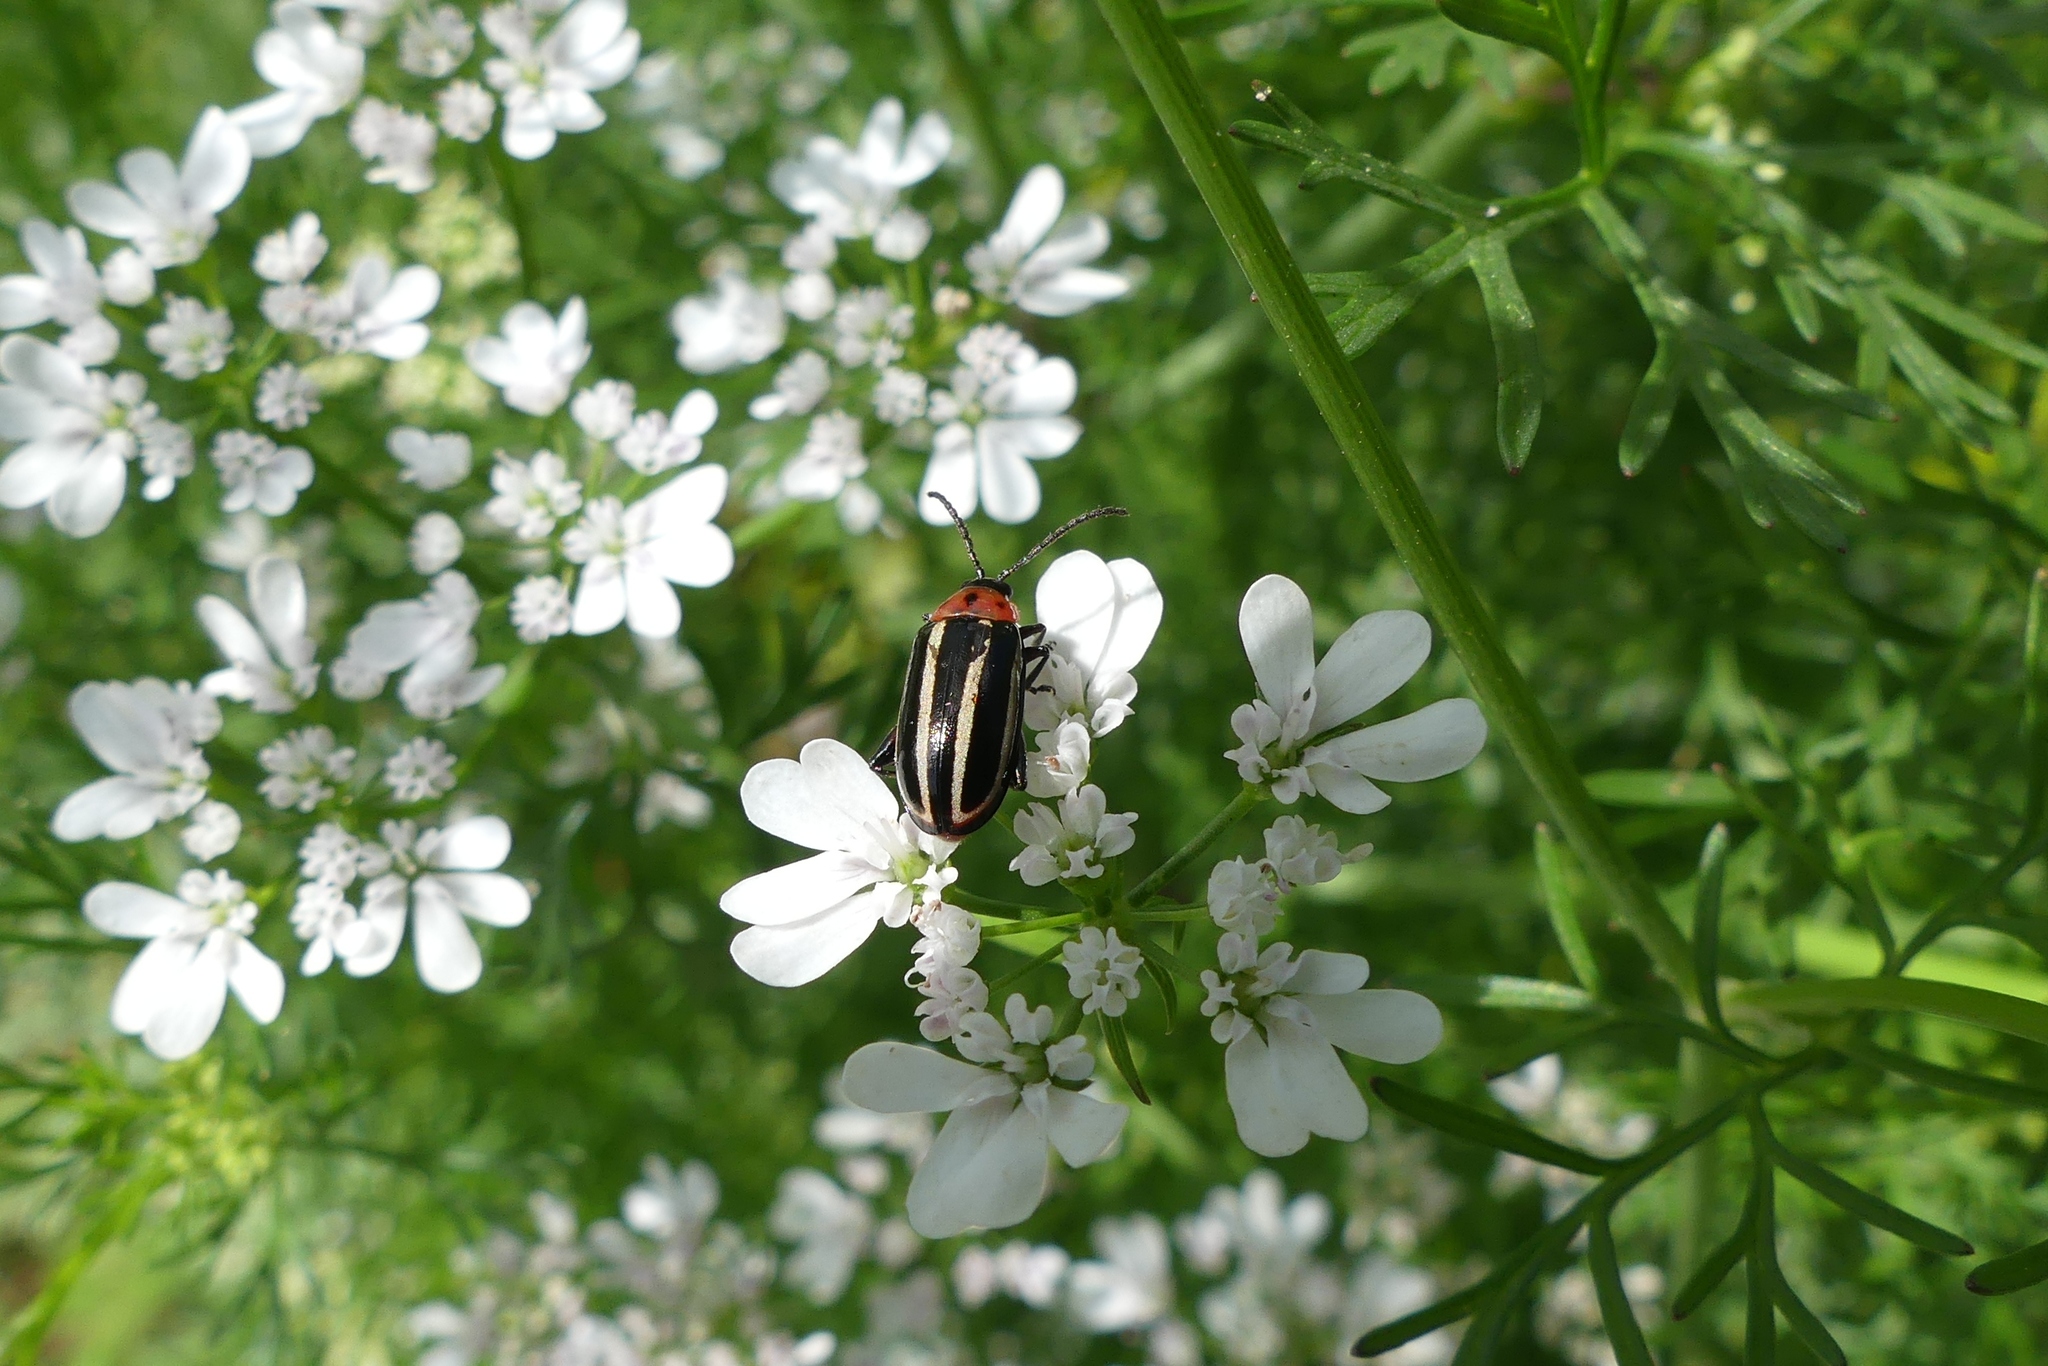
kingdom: Animalia
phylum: Arthropoda
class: Insecta
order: Coleoptera
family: Chrysomelidae
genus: Disonycha
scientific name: Disonycha glabrata
